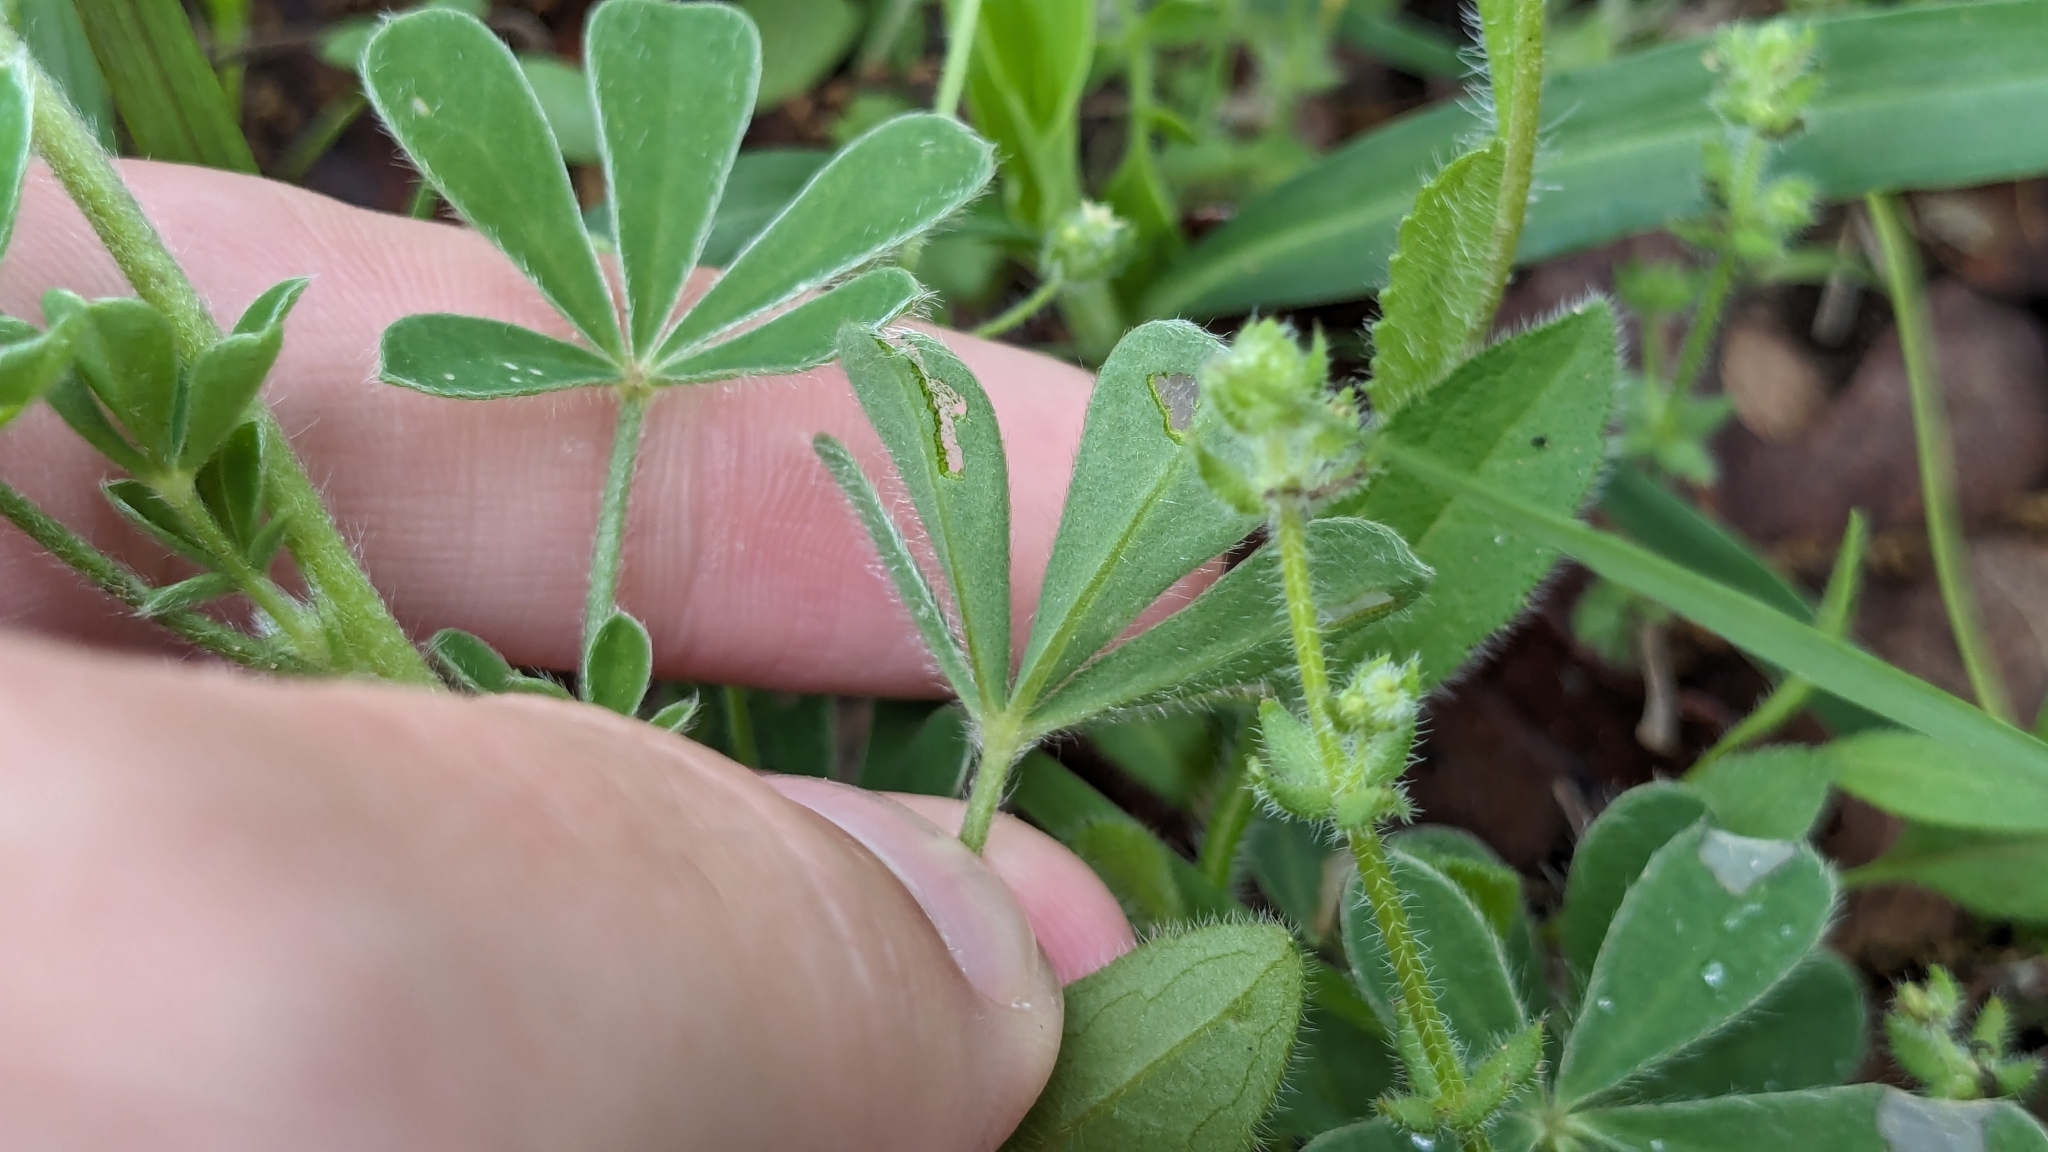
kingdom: Plantae
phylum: Tracheophyta
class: Magnoliopsida
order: Fabales
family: Fabaceae
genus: Lupinus
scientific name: Lupinus subcarnosus
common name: Texas bluebonnet
